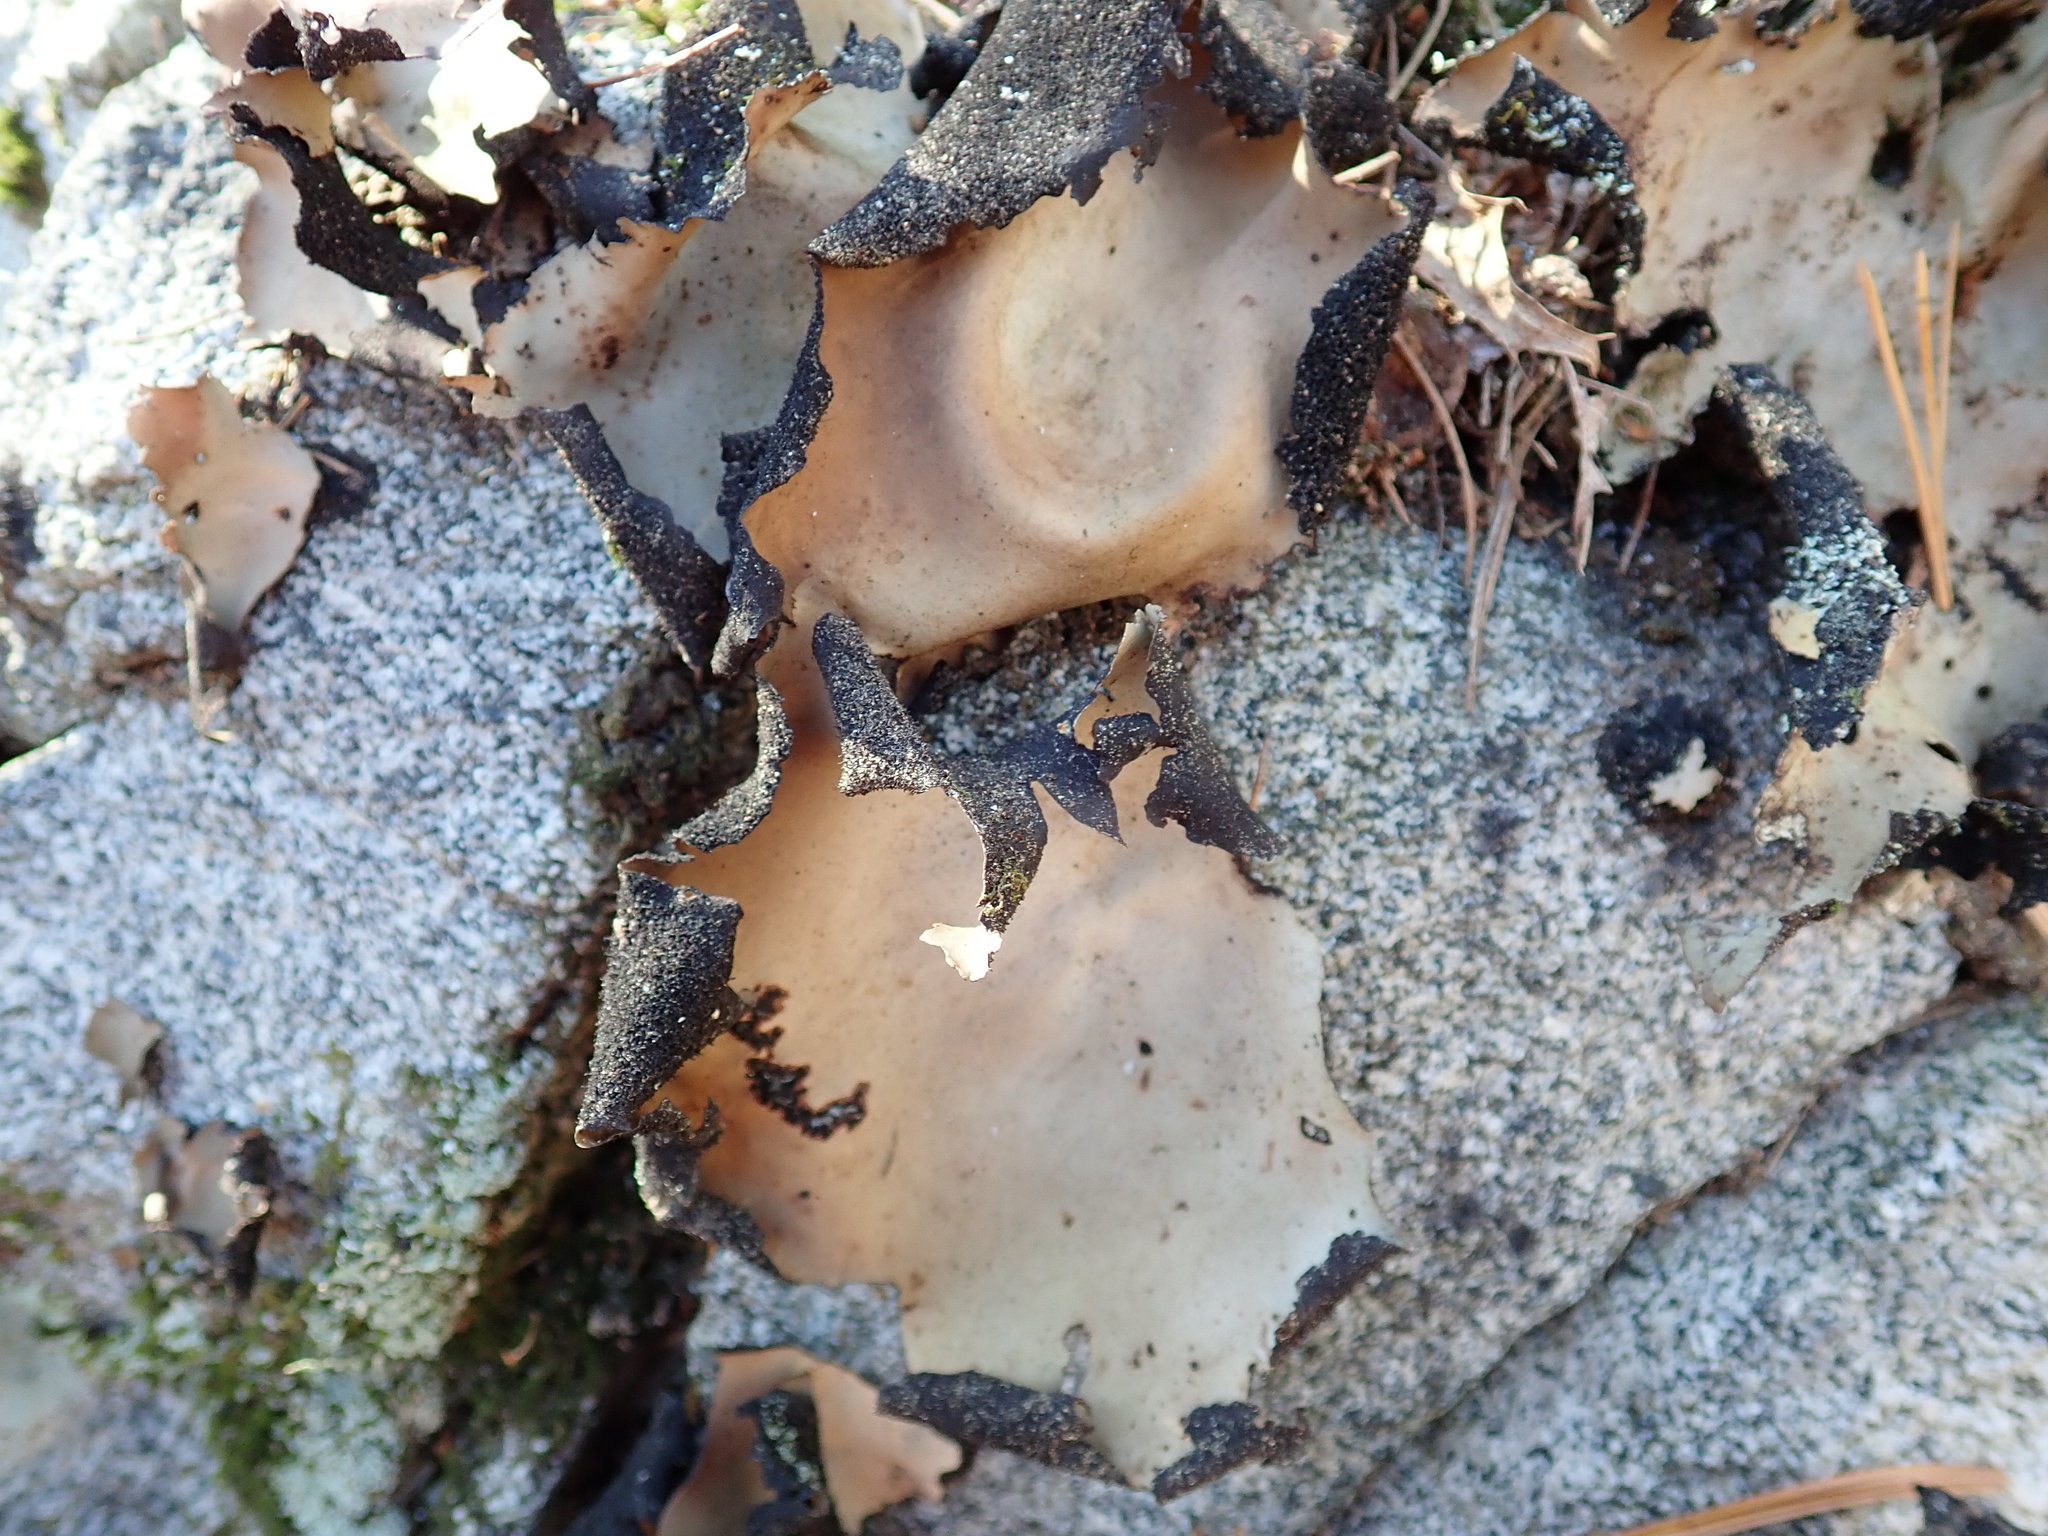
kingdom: Fungi
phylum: Ascomycota
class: Lecanoromycetes
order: Umbilicariales
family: Umbilicariaceae
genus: Umbilicaria
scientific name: Umbilicaria mammulata
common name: Smooth rock tripe
